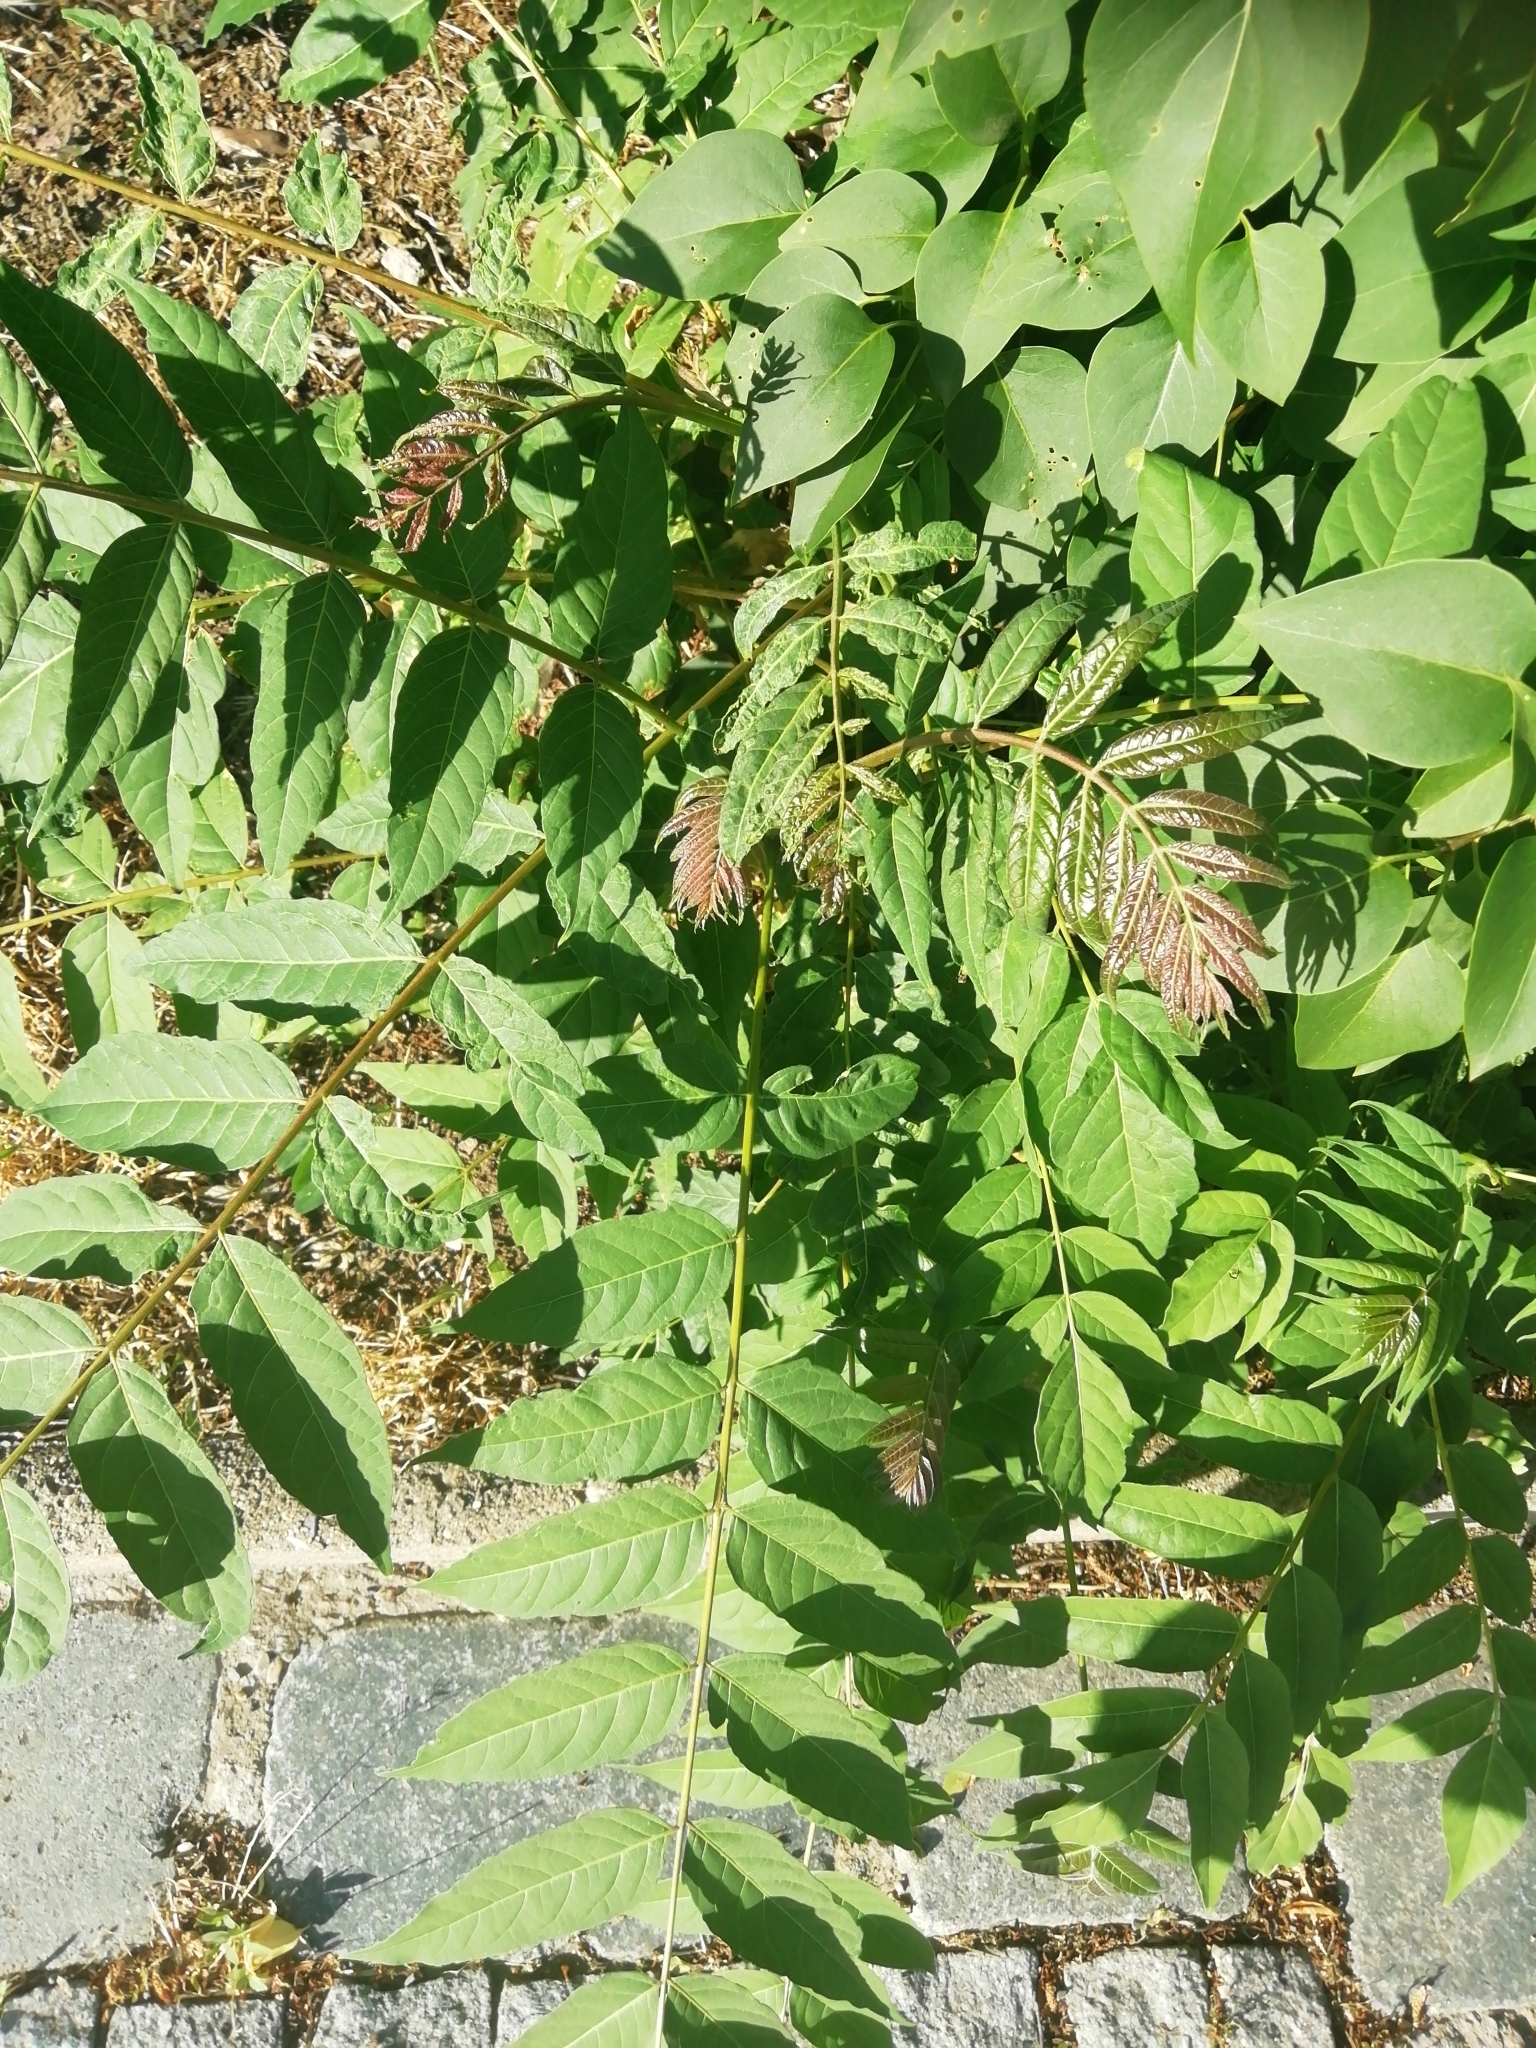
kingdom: Plantae
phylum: Tracheophyta
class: Magnoliopsida
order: Sapindales
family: Simaroubaceae
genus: Ailanthus
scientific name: Ailanthus altissima
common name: Tree-of-heaven
